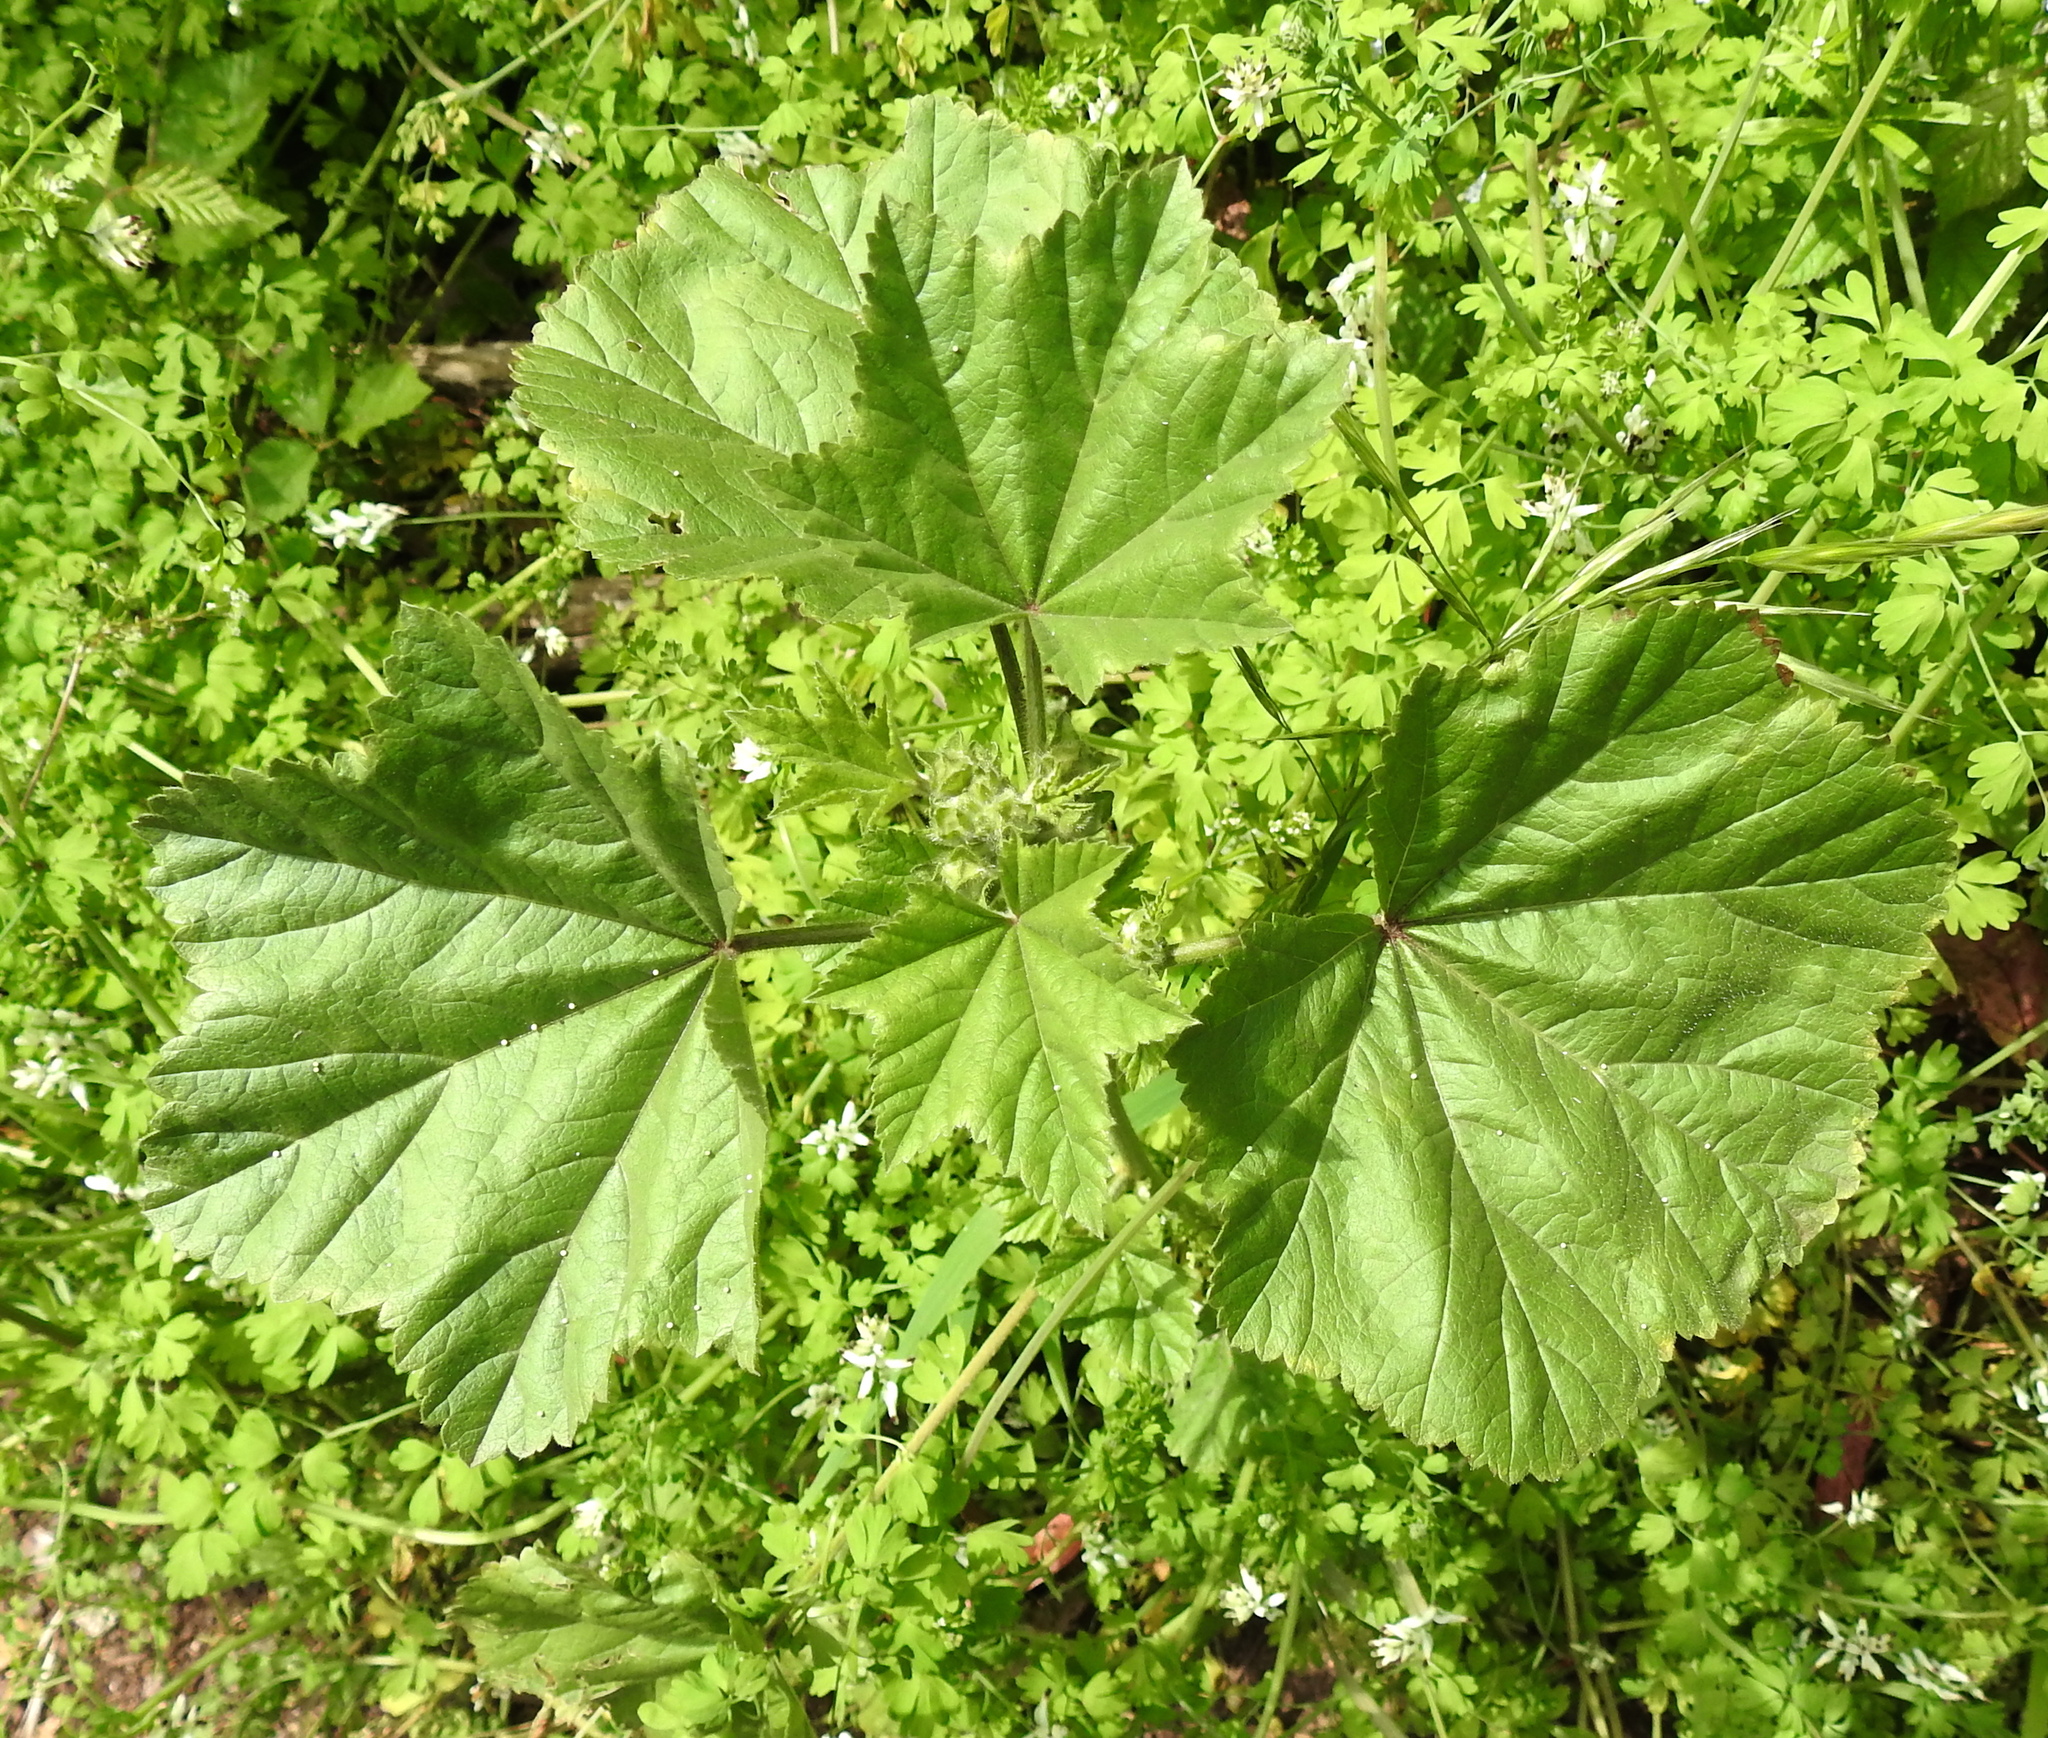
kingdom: Plantae
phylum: Tracheophyta
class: Magnoliopsida
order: Malvales
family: Malvaceae
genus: Malva
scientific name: Malva
